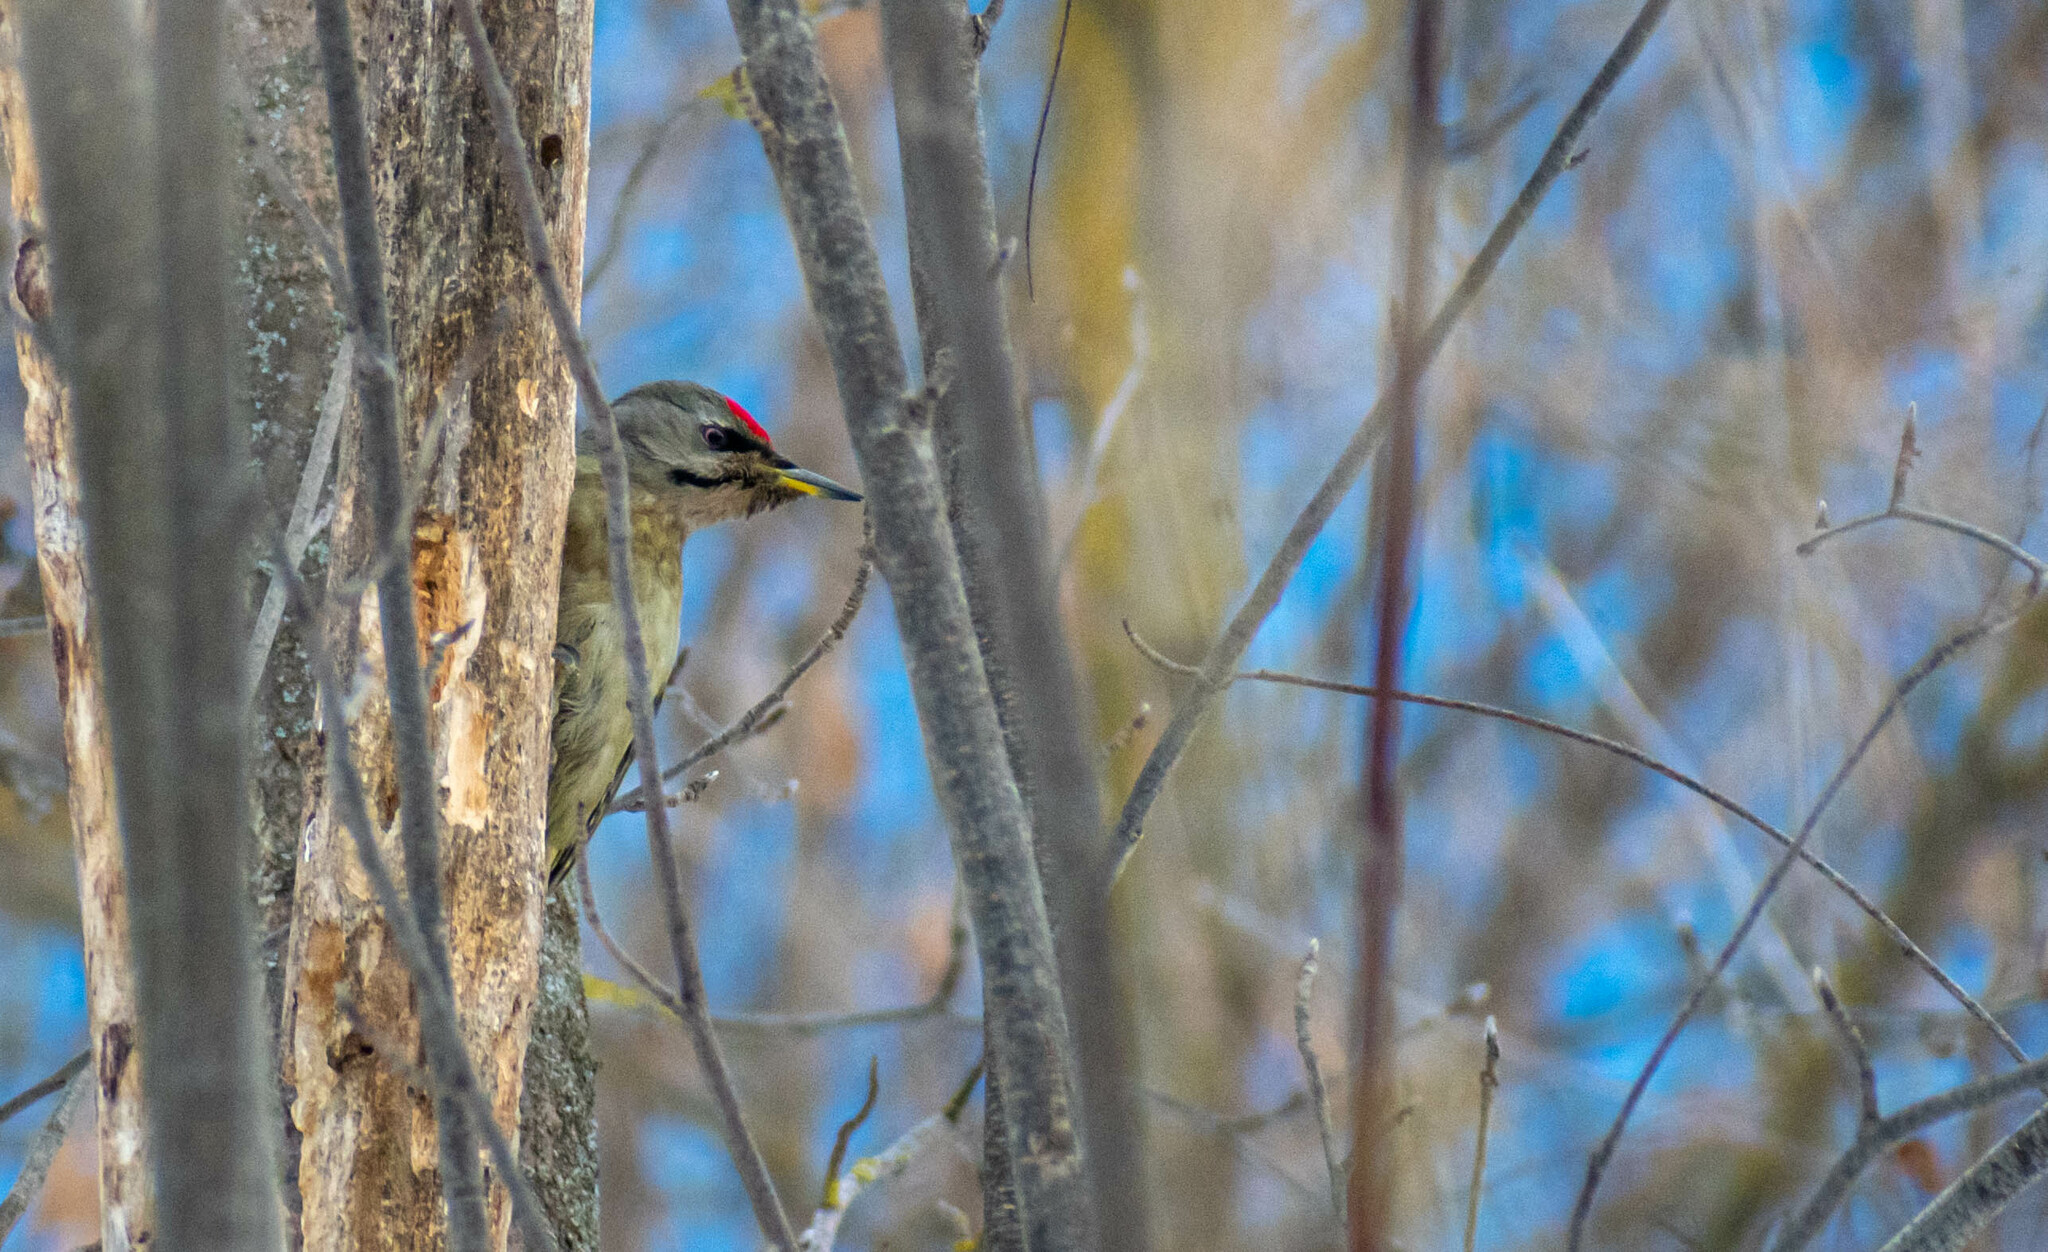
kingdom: Animalia
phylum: Chordata
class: Aves
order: Piciformes
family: Picidae
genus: Picus
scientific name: Picus canus
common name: Grey-headed woodpecker
